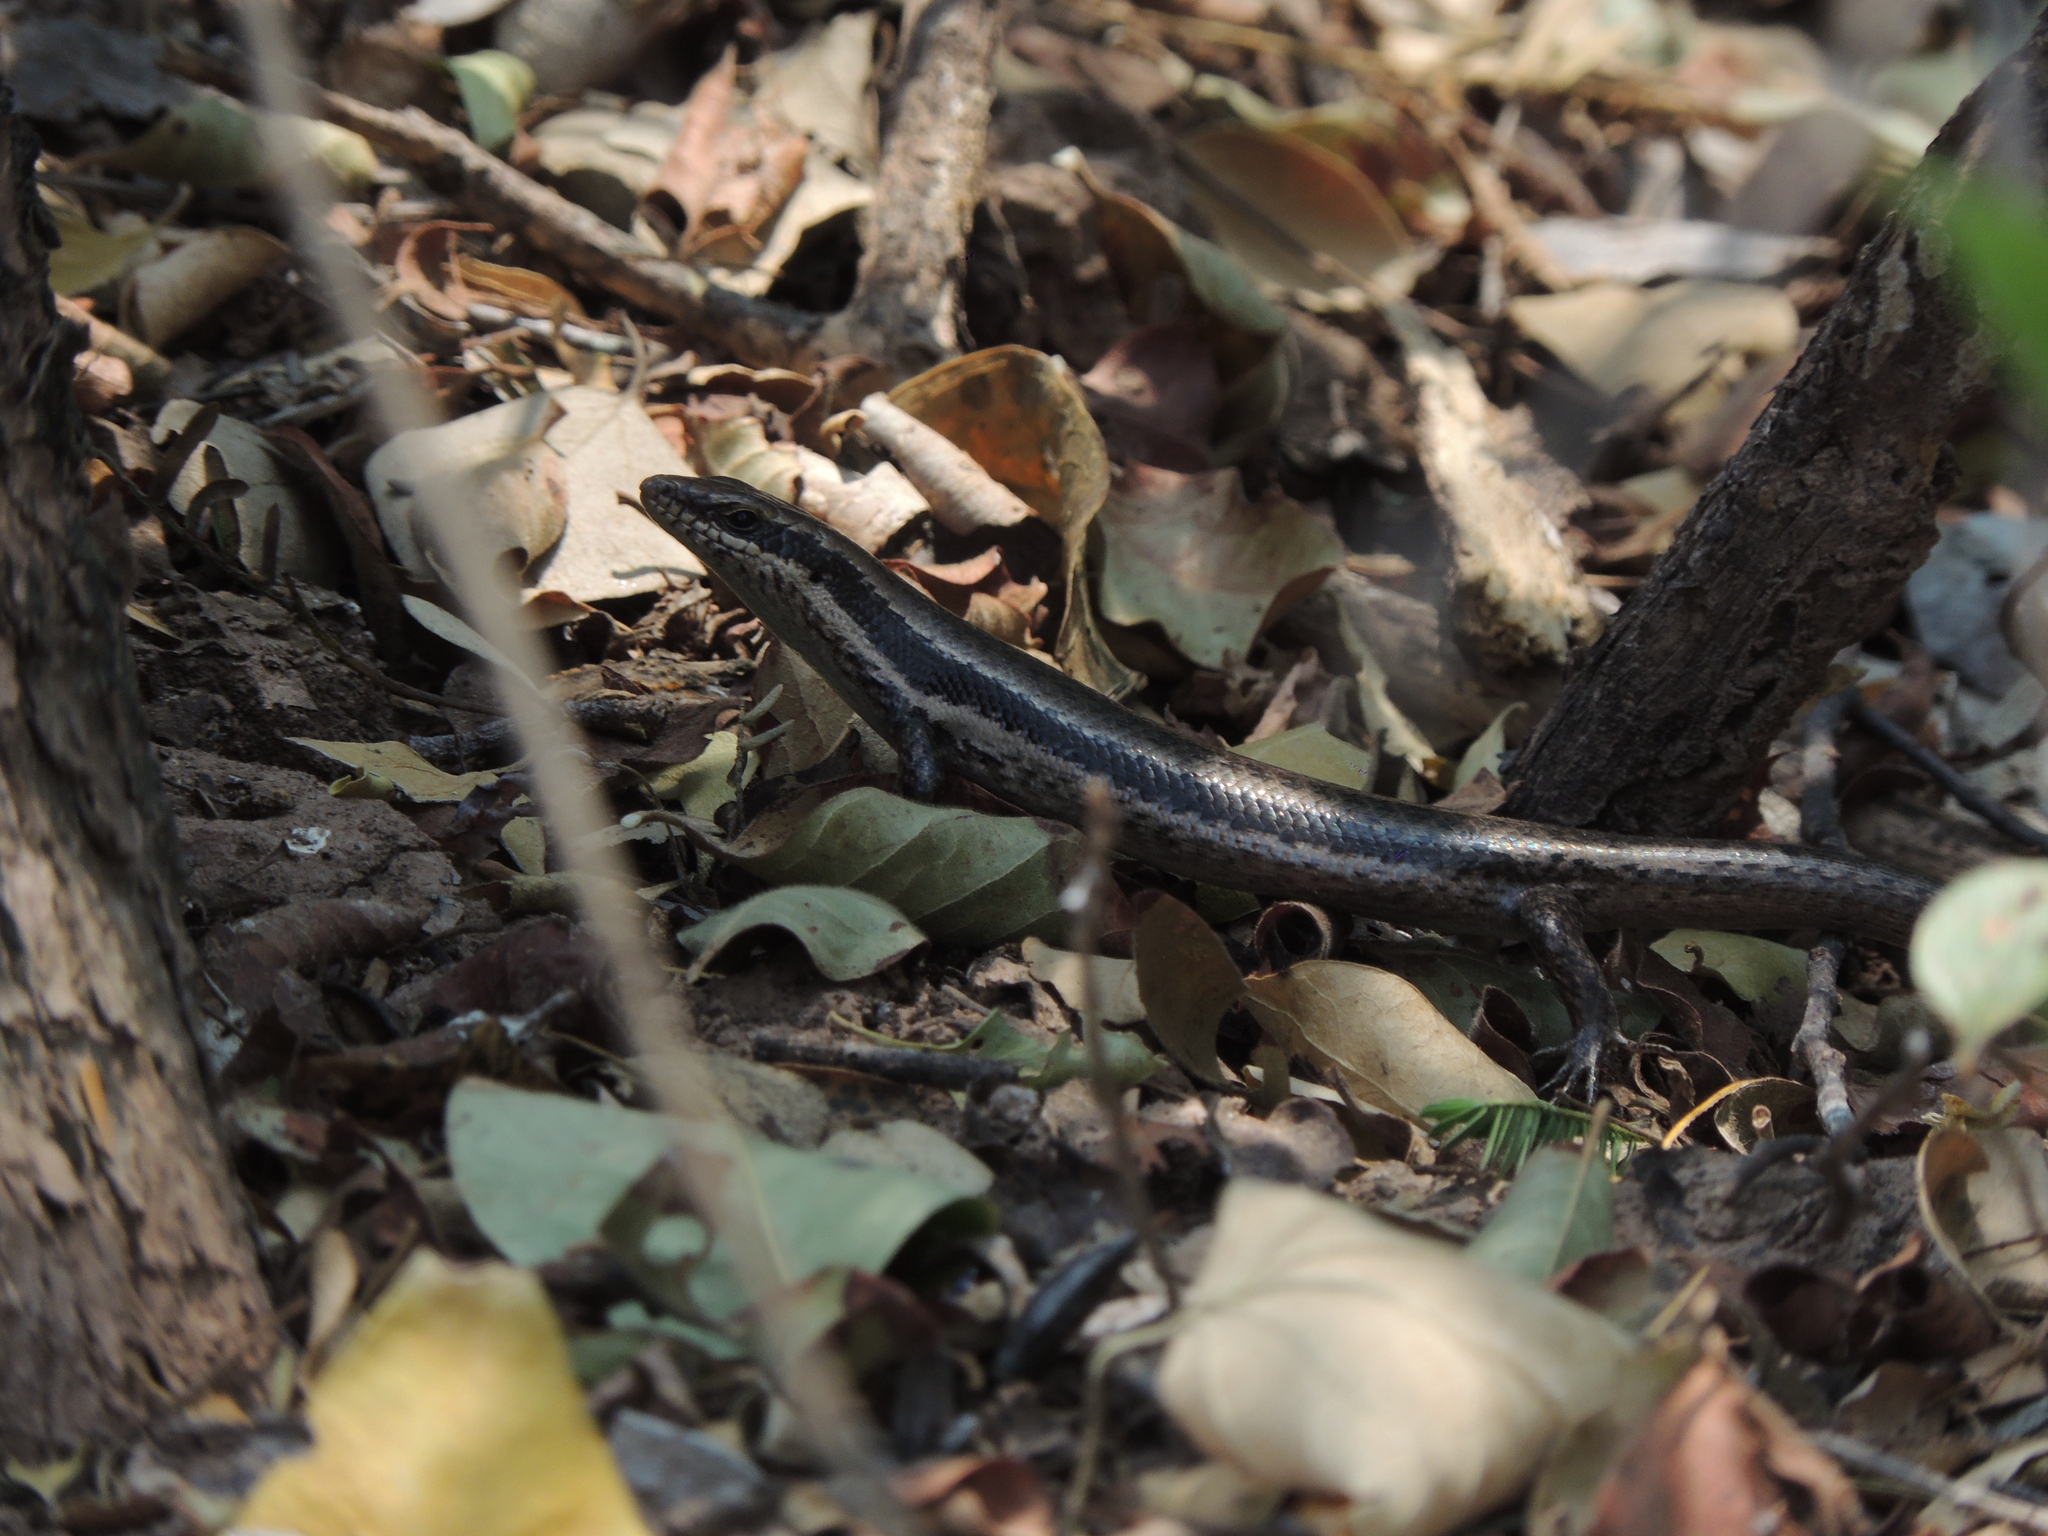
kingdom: Animalia
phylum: Chordata
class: Squamata
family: Scincidae
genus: Notomabuya
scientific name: Notomabuya frenata
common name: Cope's mabuya
